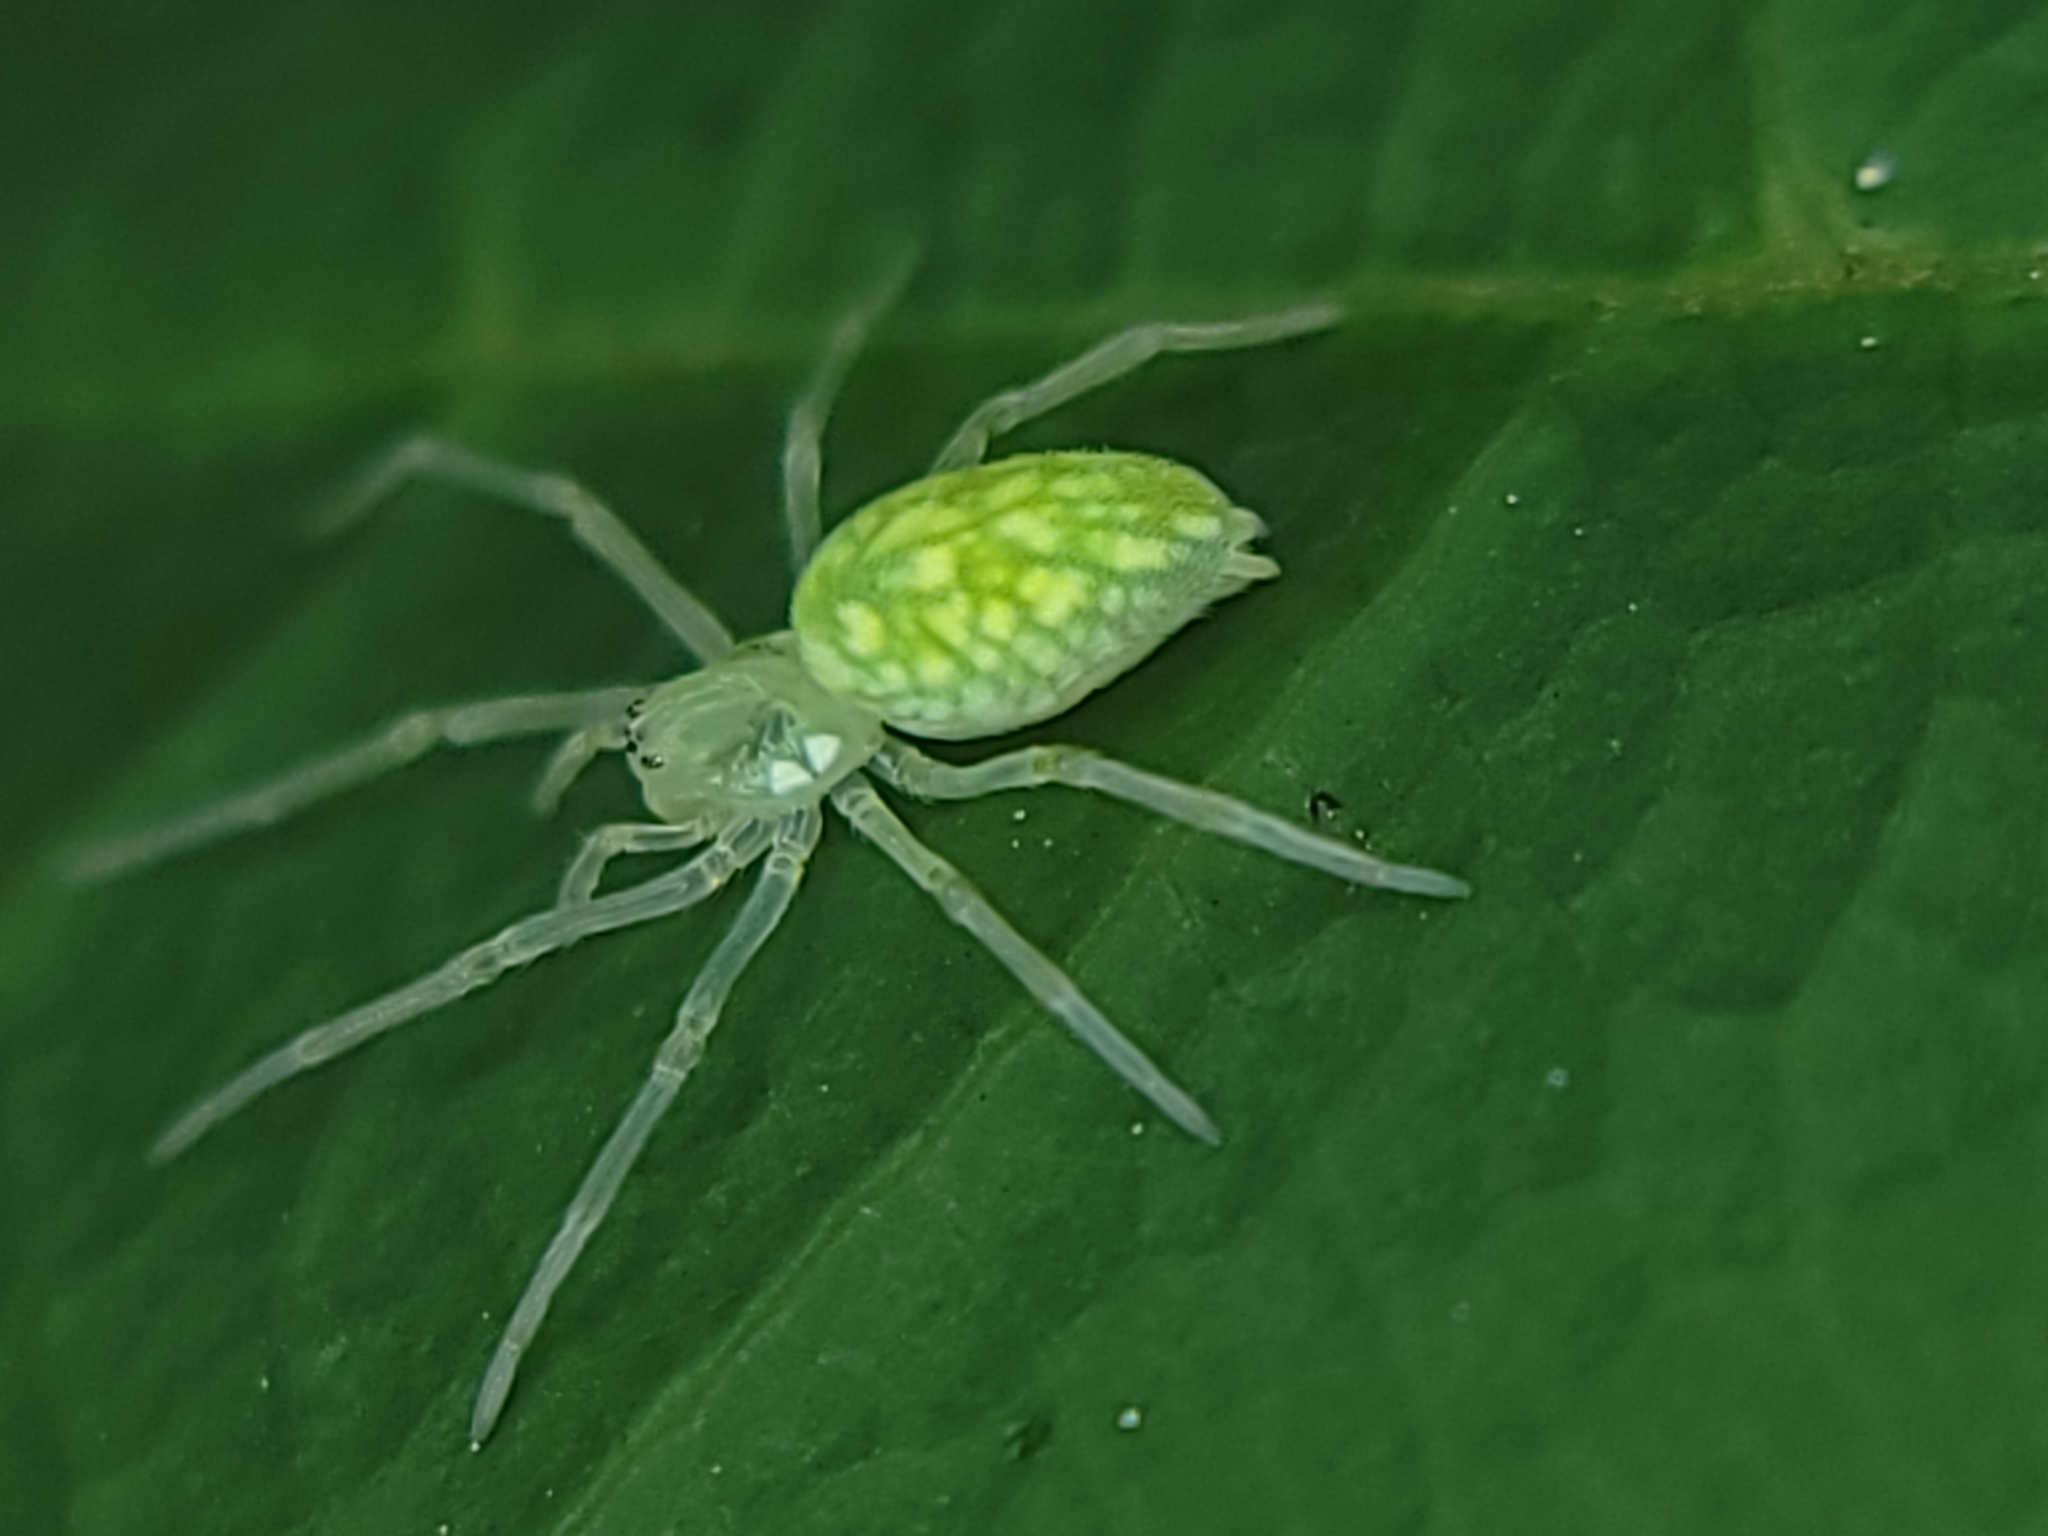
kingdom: Animalia
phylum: Arthropoda
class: Arachnida
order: Araneae
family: Dictynidae
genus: Nigma
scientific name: Nigma linsdalei
